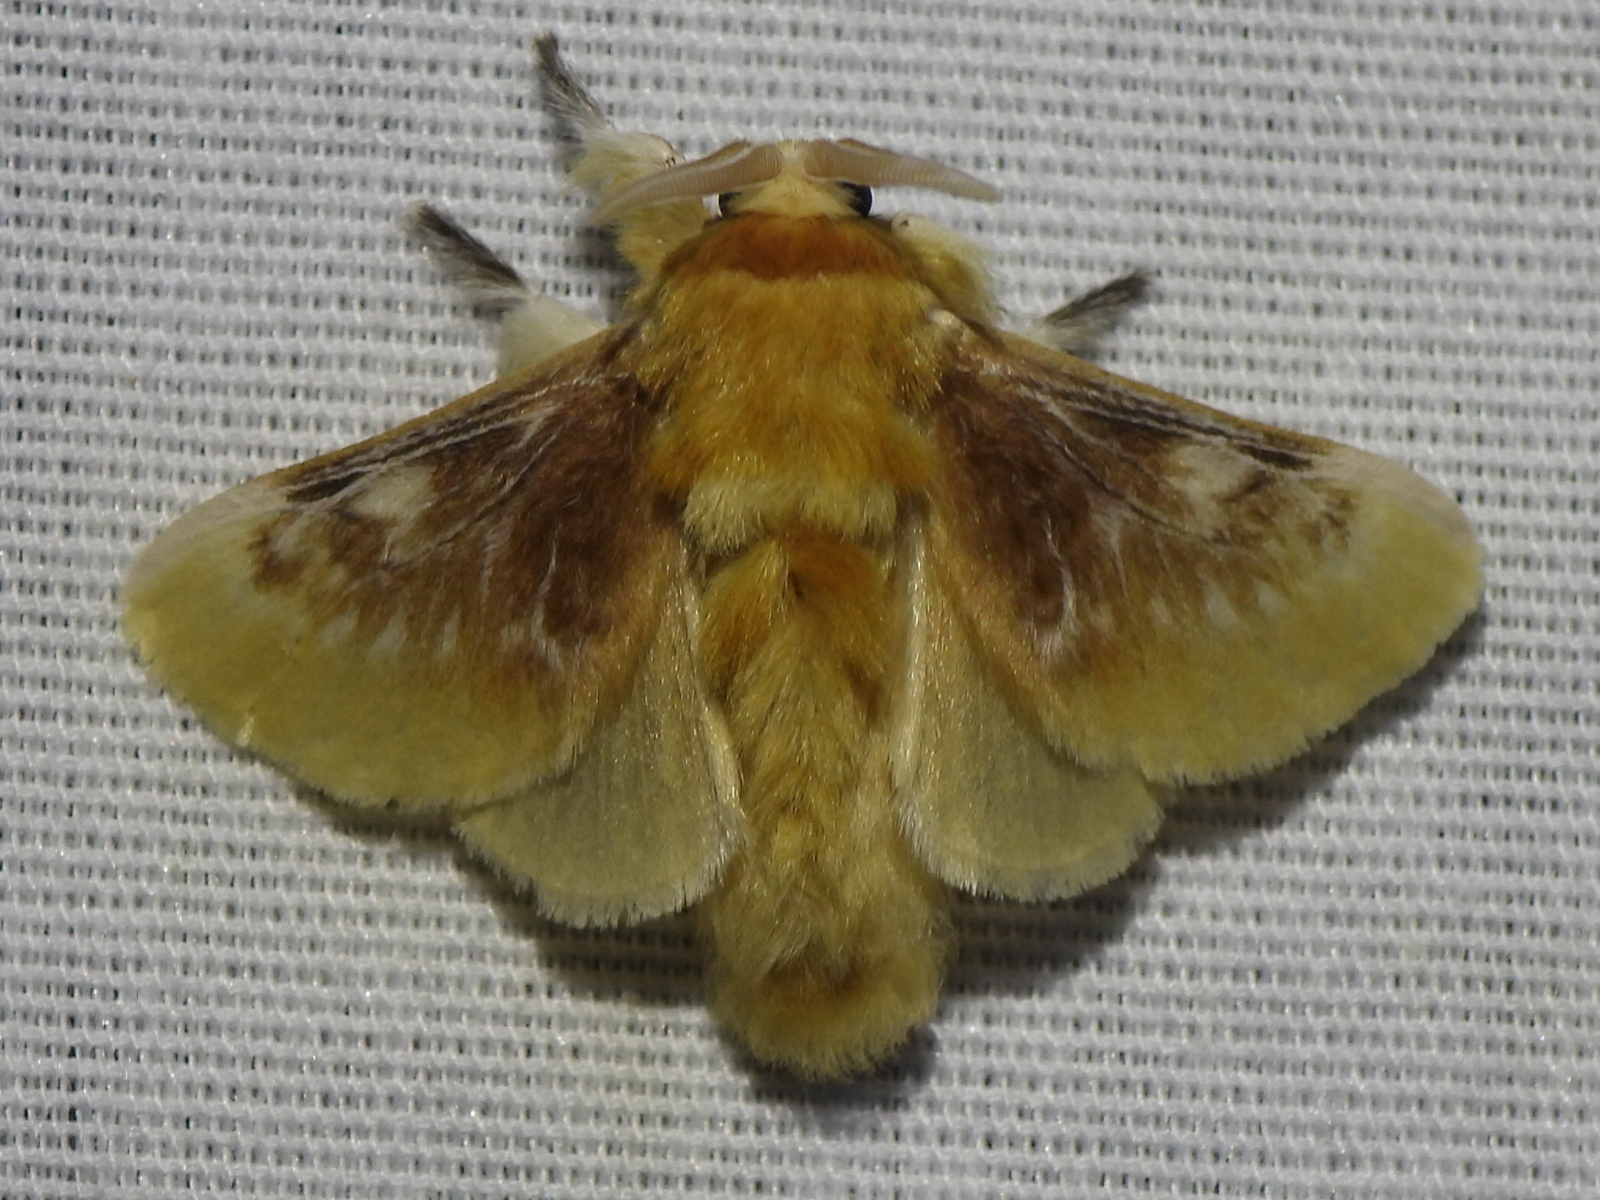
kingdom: Animalia
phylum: Arthropoda
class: Insecta
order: Lepidoptera
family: Megalopygidae
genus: Megalopyge
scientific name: Megalopyge opercularis
